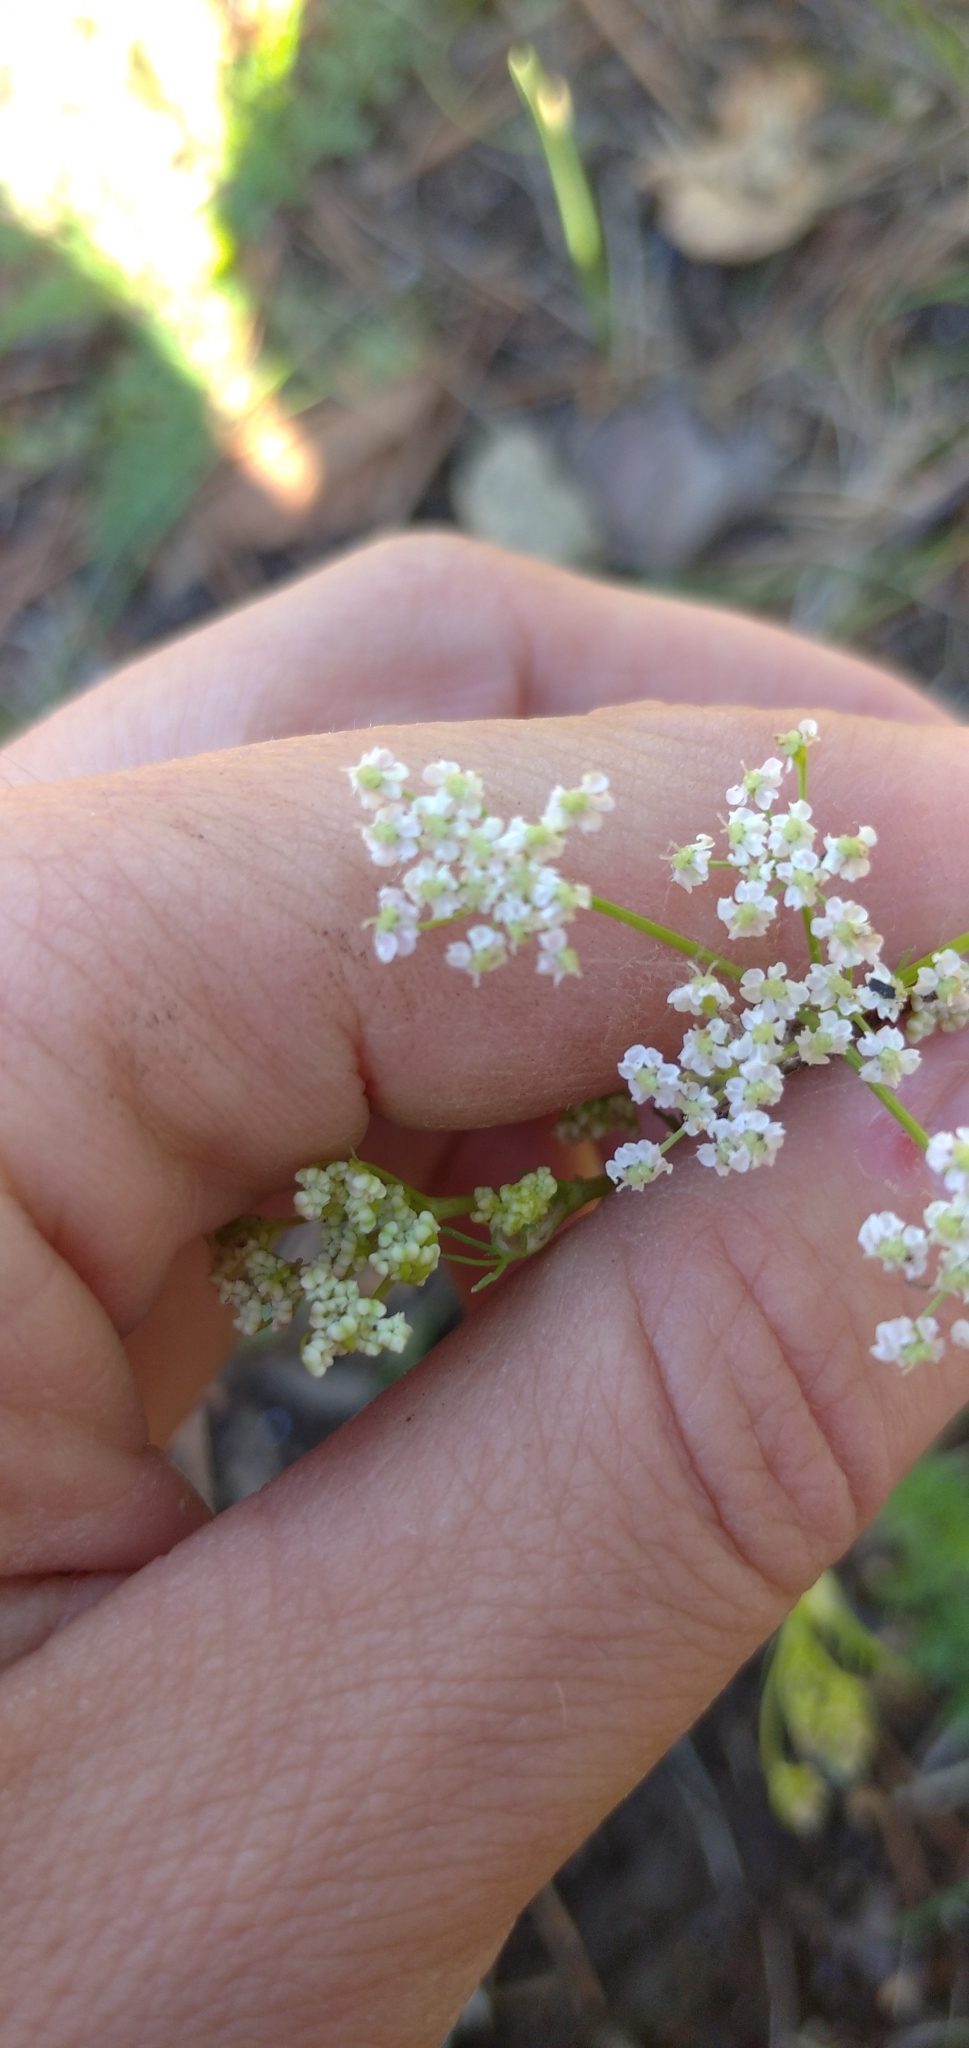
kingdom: Plantae
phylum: Tracheophyta
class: Magnoliopsida
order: Apiales
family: Apiaceae
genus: Carum
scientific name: Carum carvi
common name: Caraway
